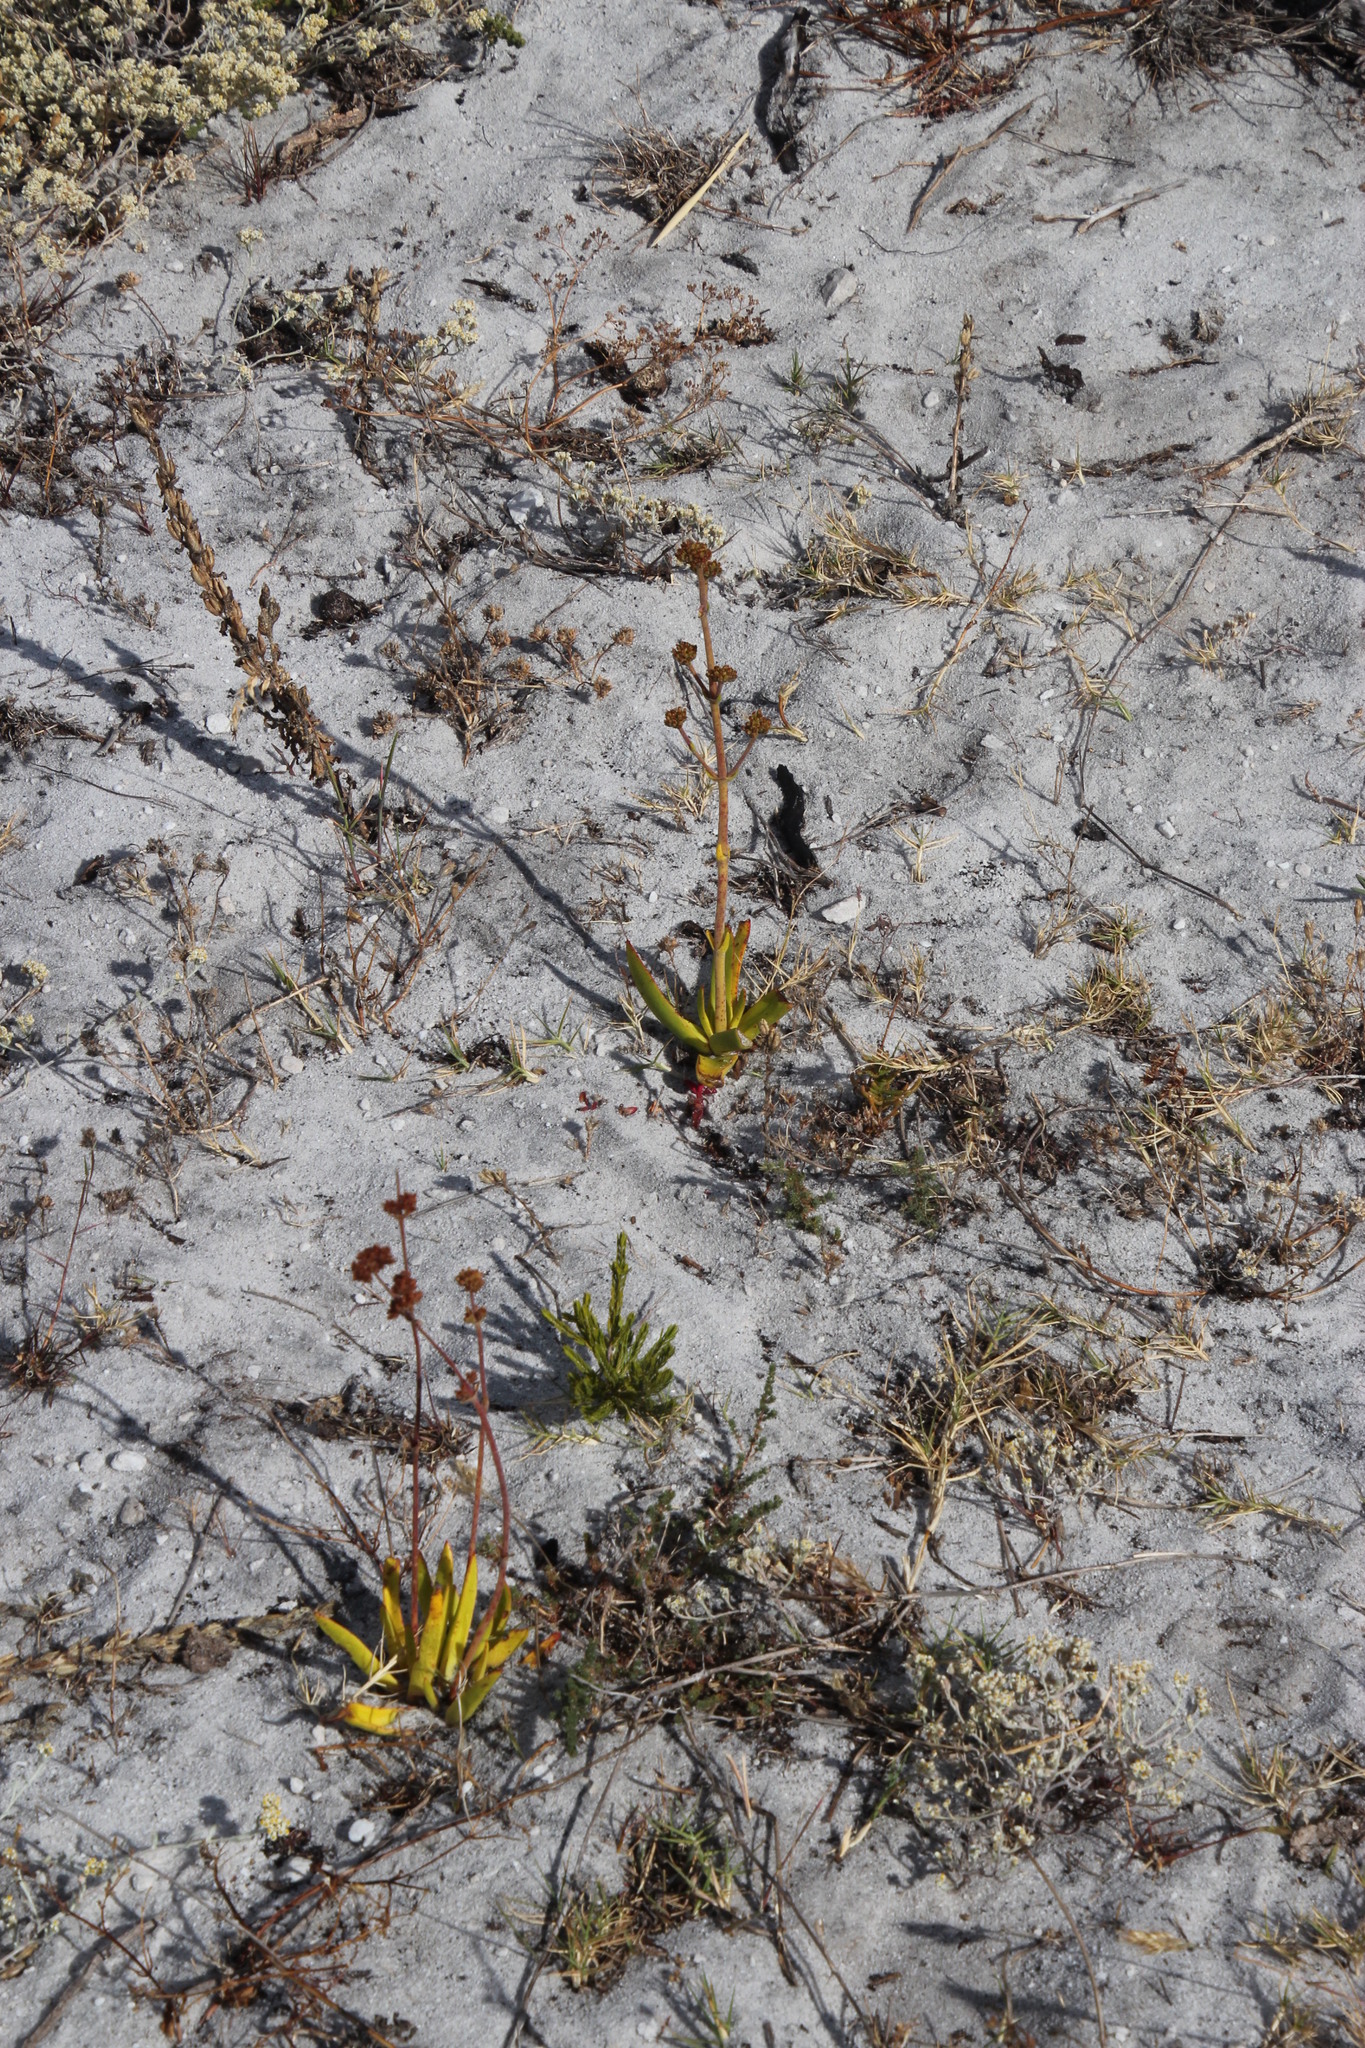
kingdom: Plantae
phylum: Tracheophyta
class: Magnoliopsida
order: Saxifragales
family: Crassulaceae
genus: Crassula
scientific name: Crassula nudicaulis
